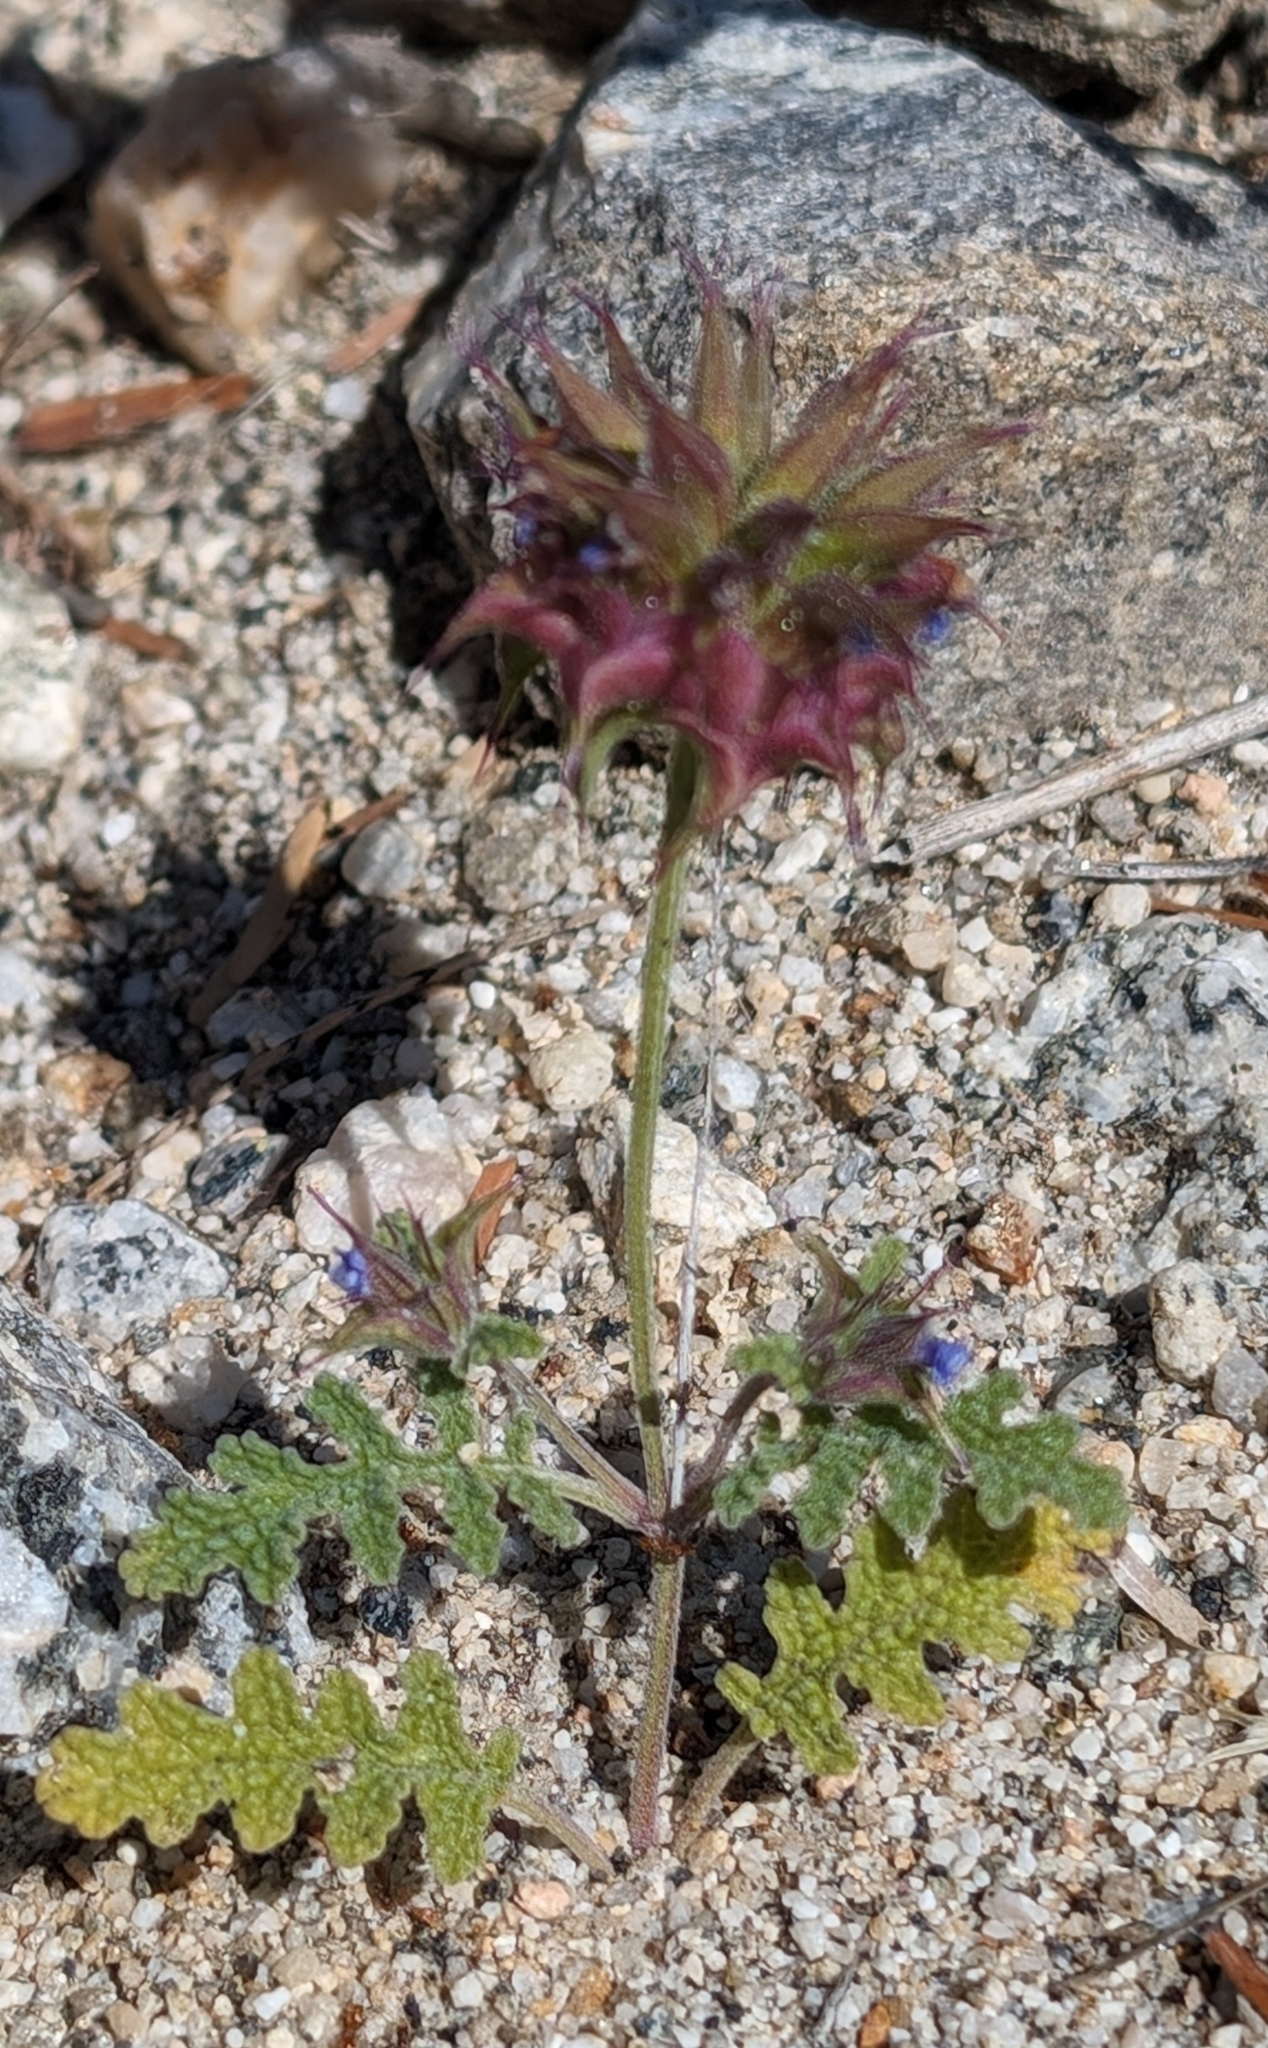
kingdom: Plantae
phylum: Tracheophyta
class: Magnoliopsida
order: Lamiales
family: Lamiaceae
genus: Salvia
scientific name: Salvia columbariae
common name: Chia
